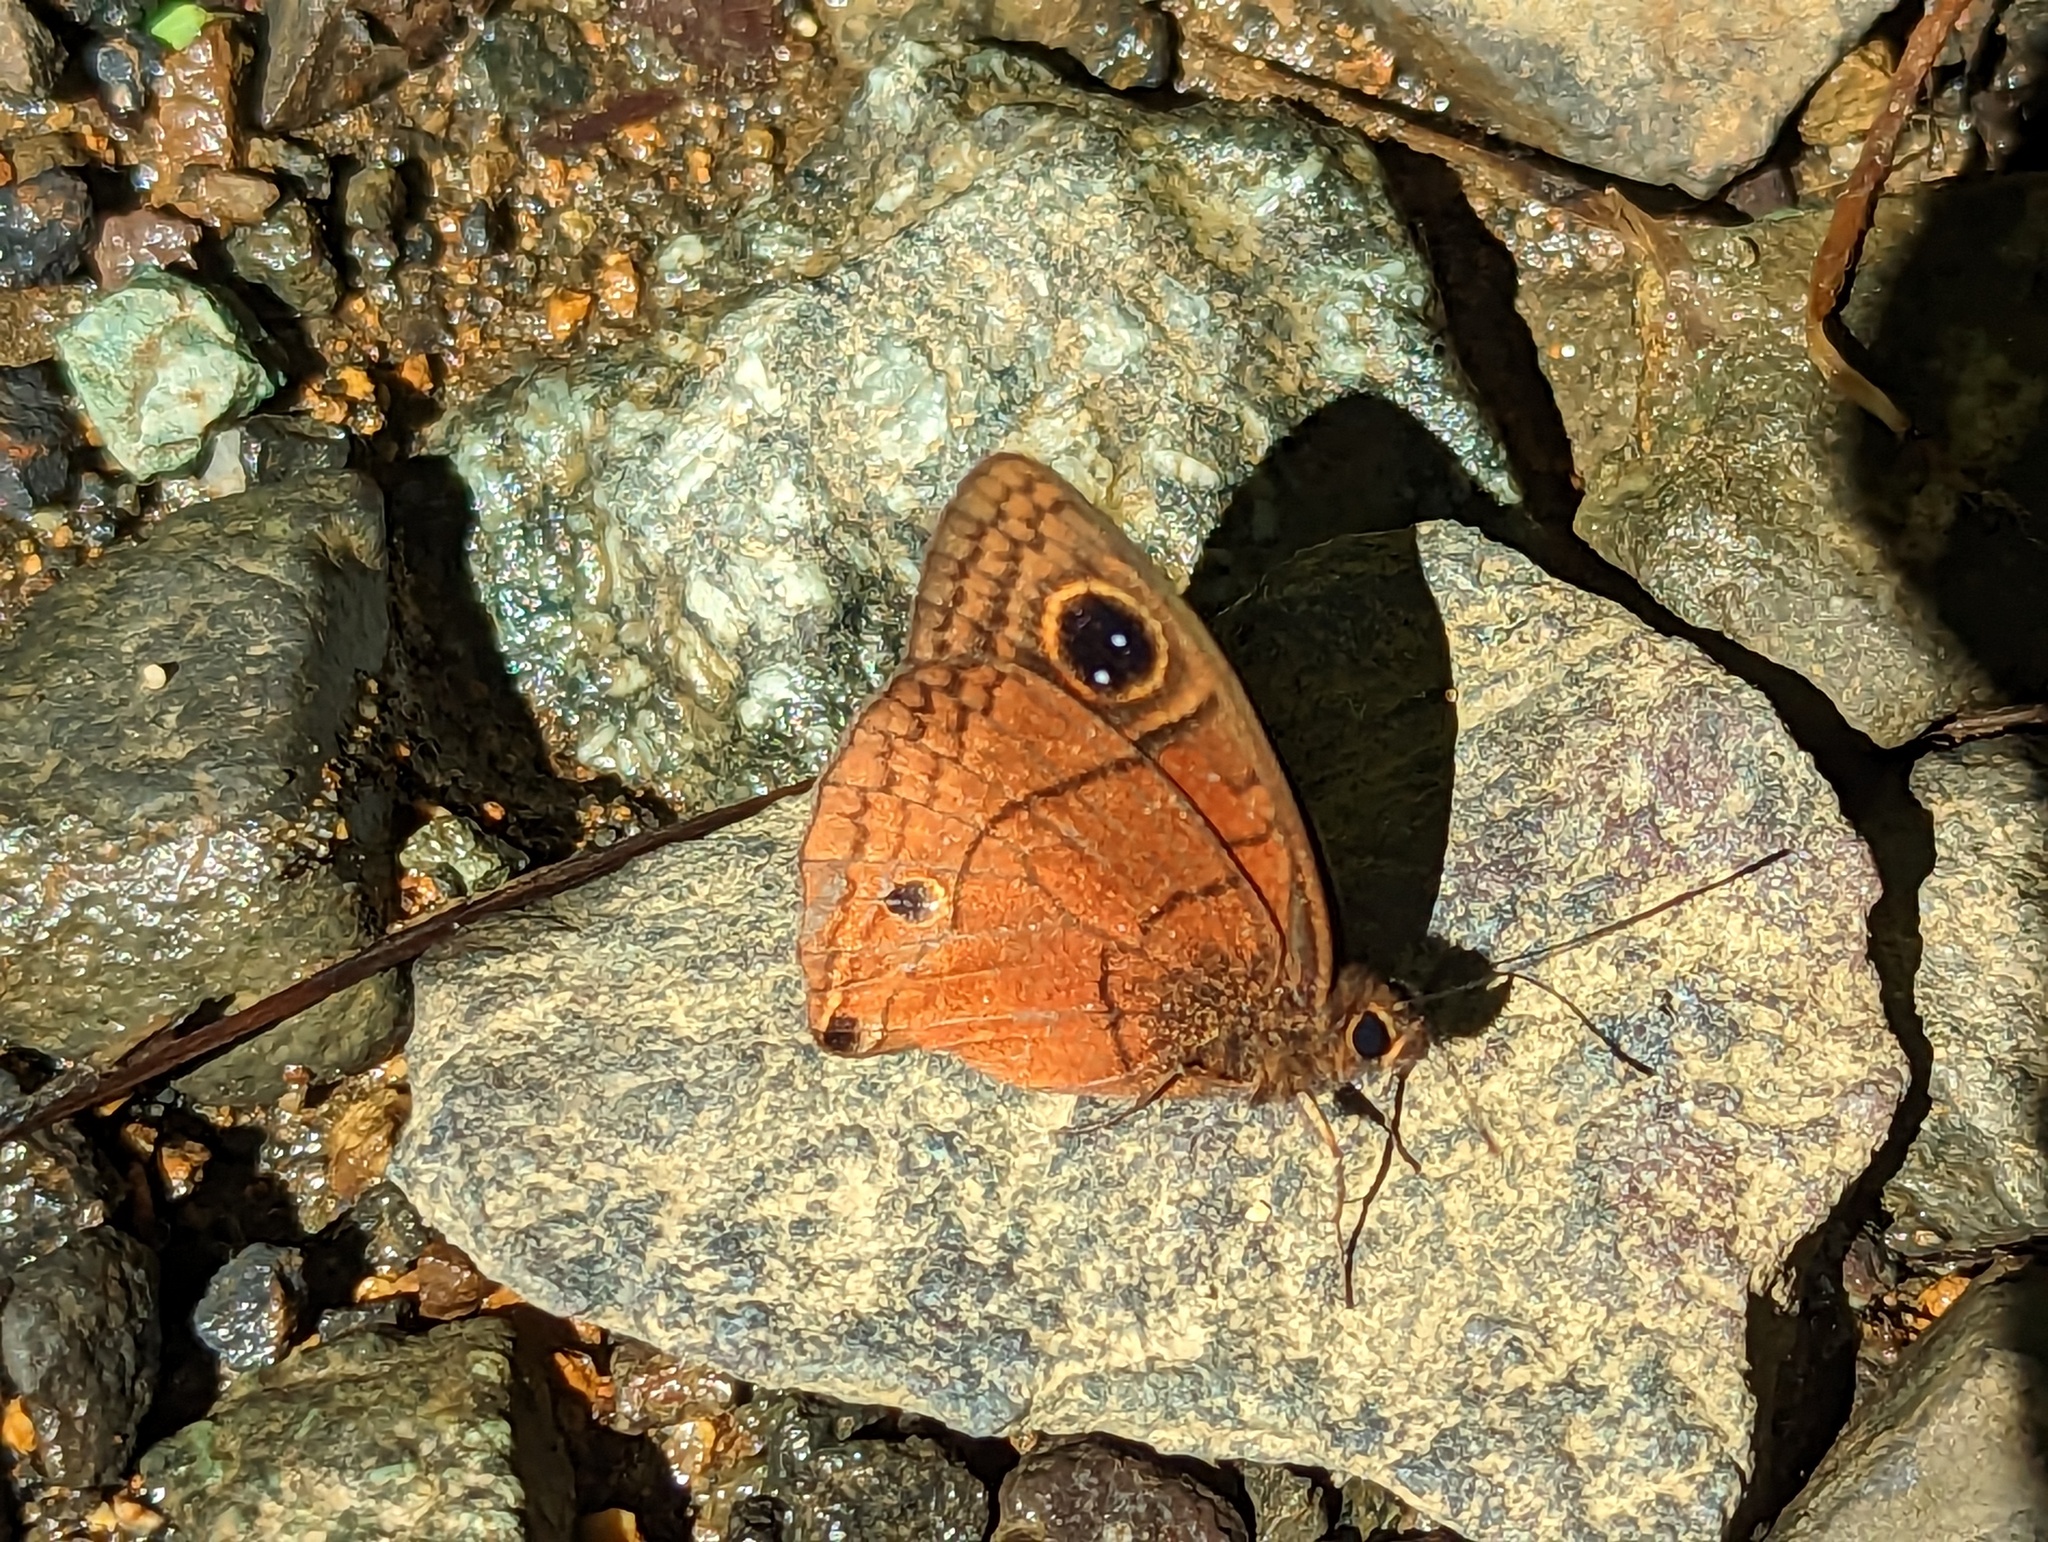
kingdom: Animalia
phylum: Arthropoda
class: Insecta
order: Lepidoptera
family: Nymphalidae
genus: Calisto
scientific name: Calisto nubila
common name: Puerto rican calisto
